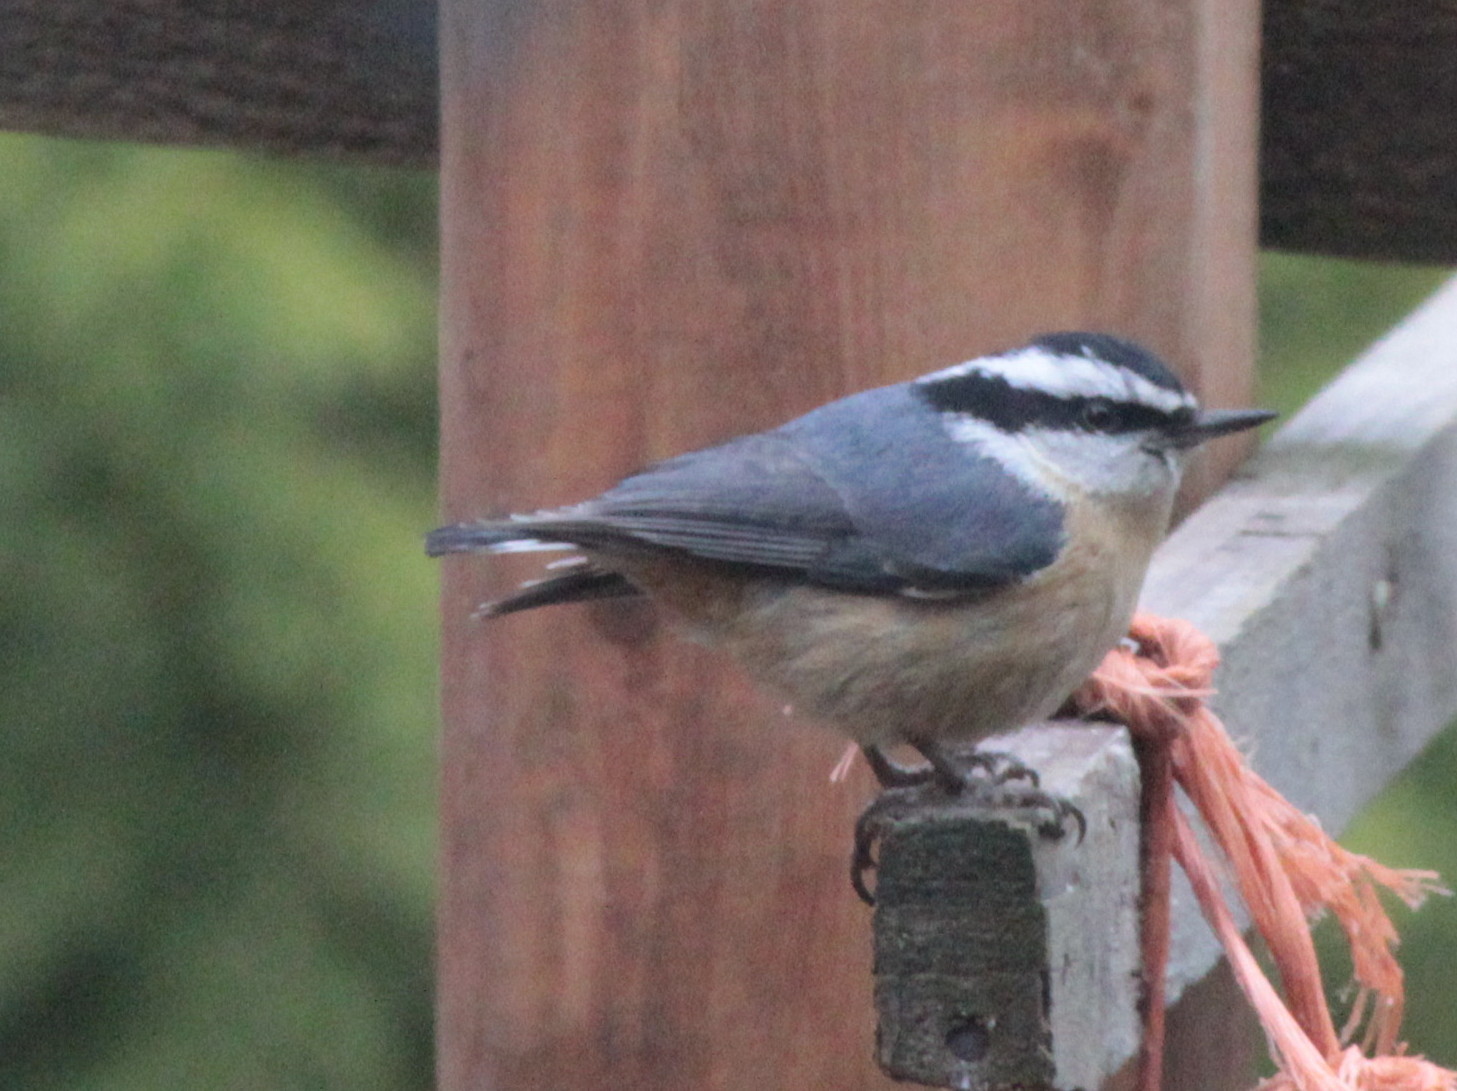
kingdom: Animalia
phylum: Chordata
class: Aves
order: Passeriformes
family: Sittidae
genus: Sitta
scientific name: Sitta canadensis
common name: Red-breasted nuthatch
